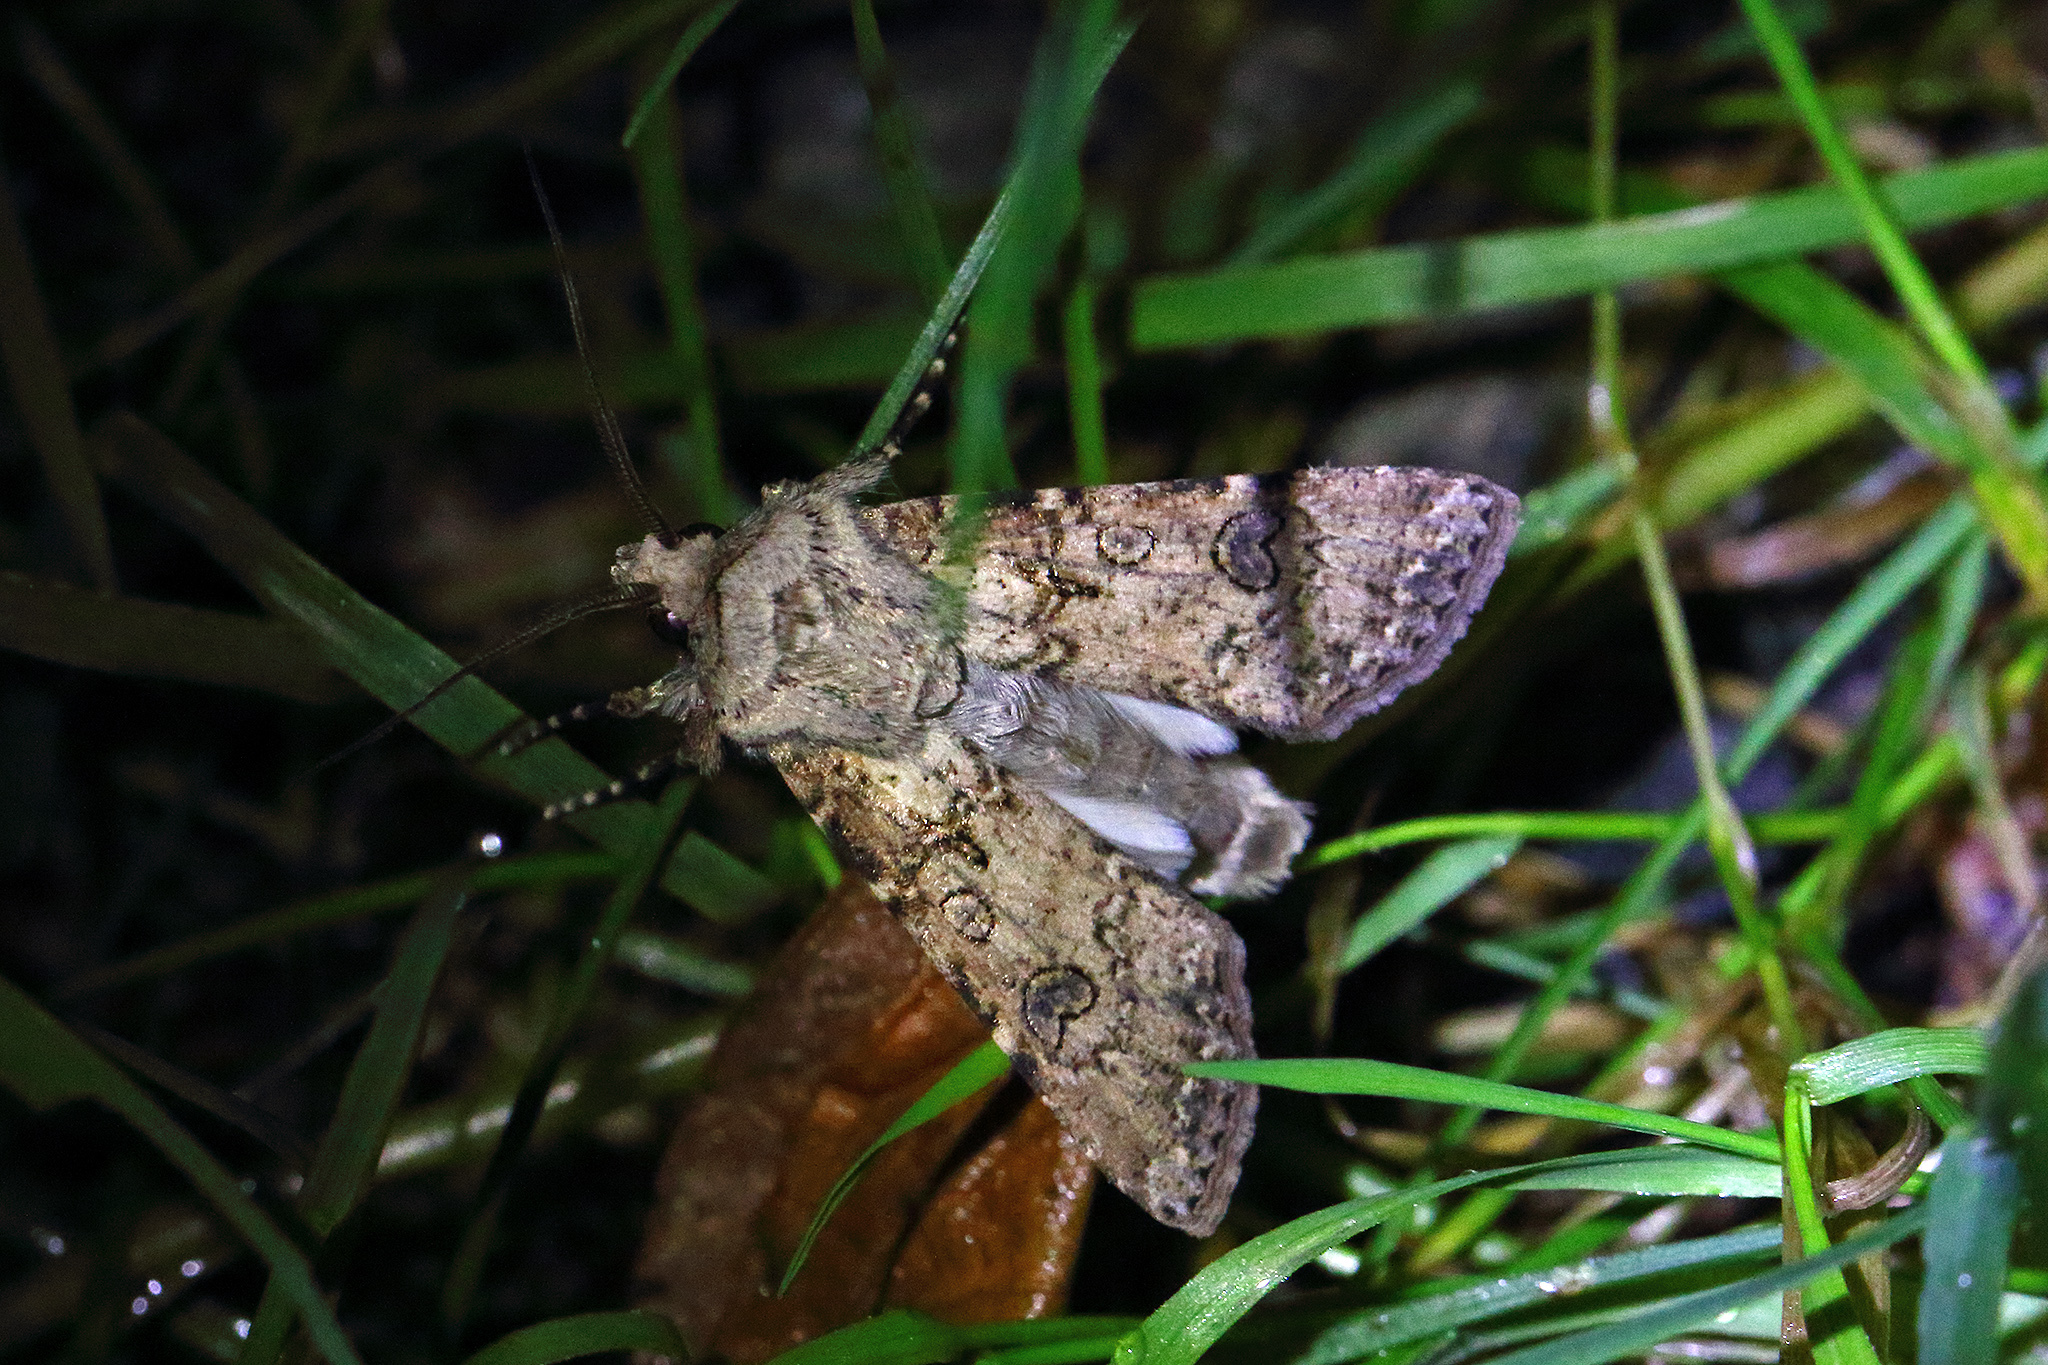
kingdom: Animalia
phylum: Arthropoda
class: Insecta
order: Lepidoptera
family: Noctuidae
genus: Agrotis
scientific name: Agrotis segetum
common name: Turnip moth
